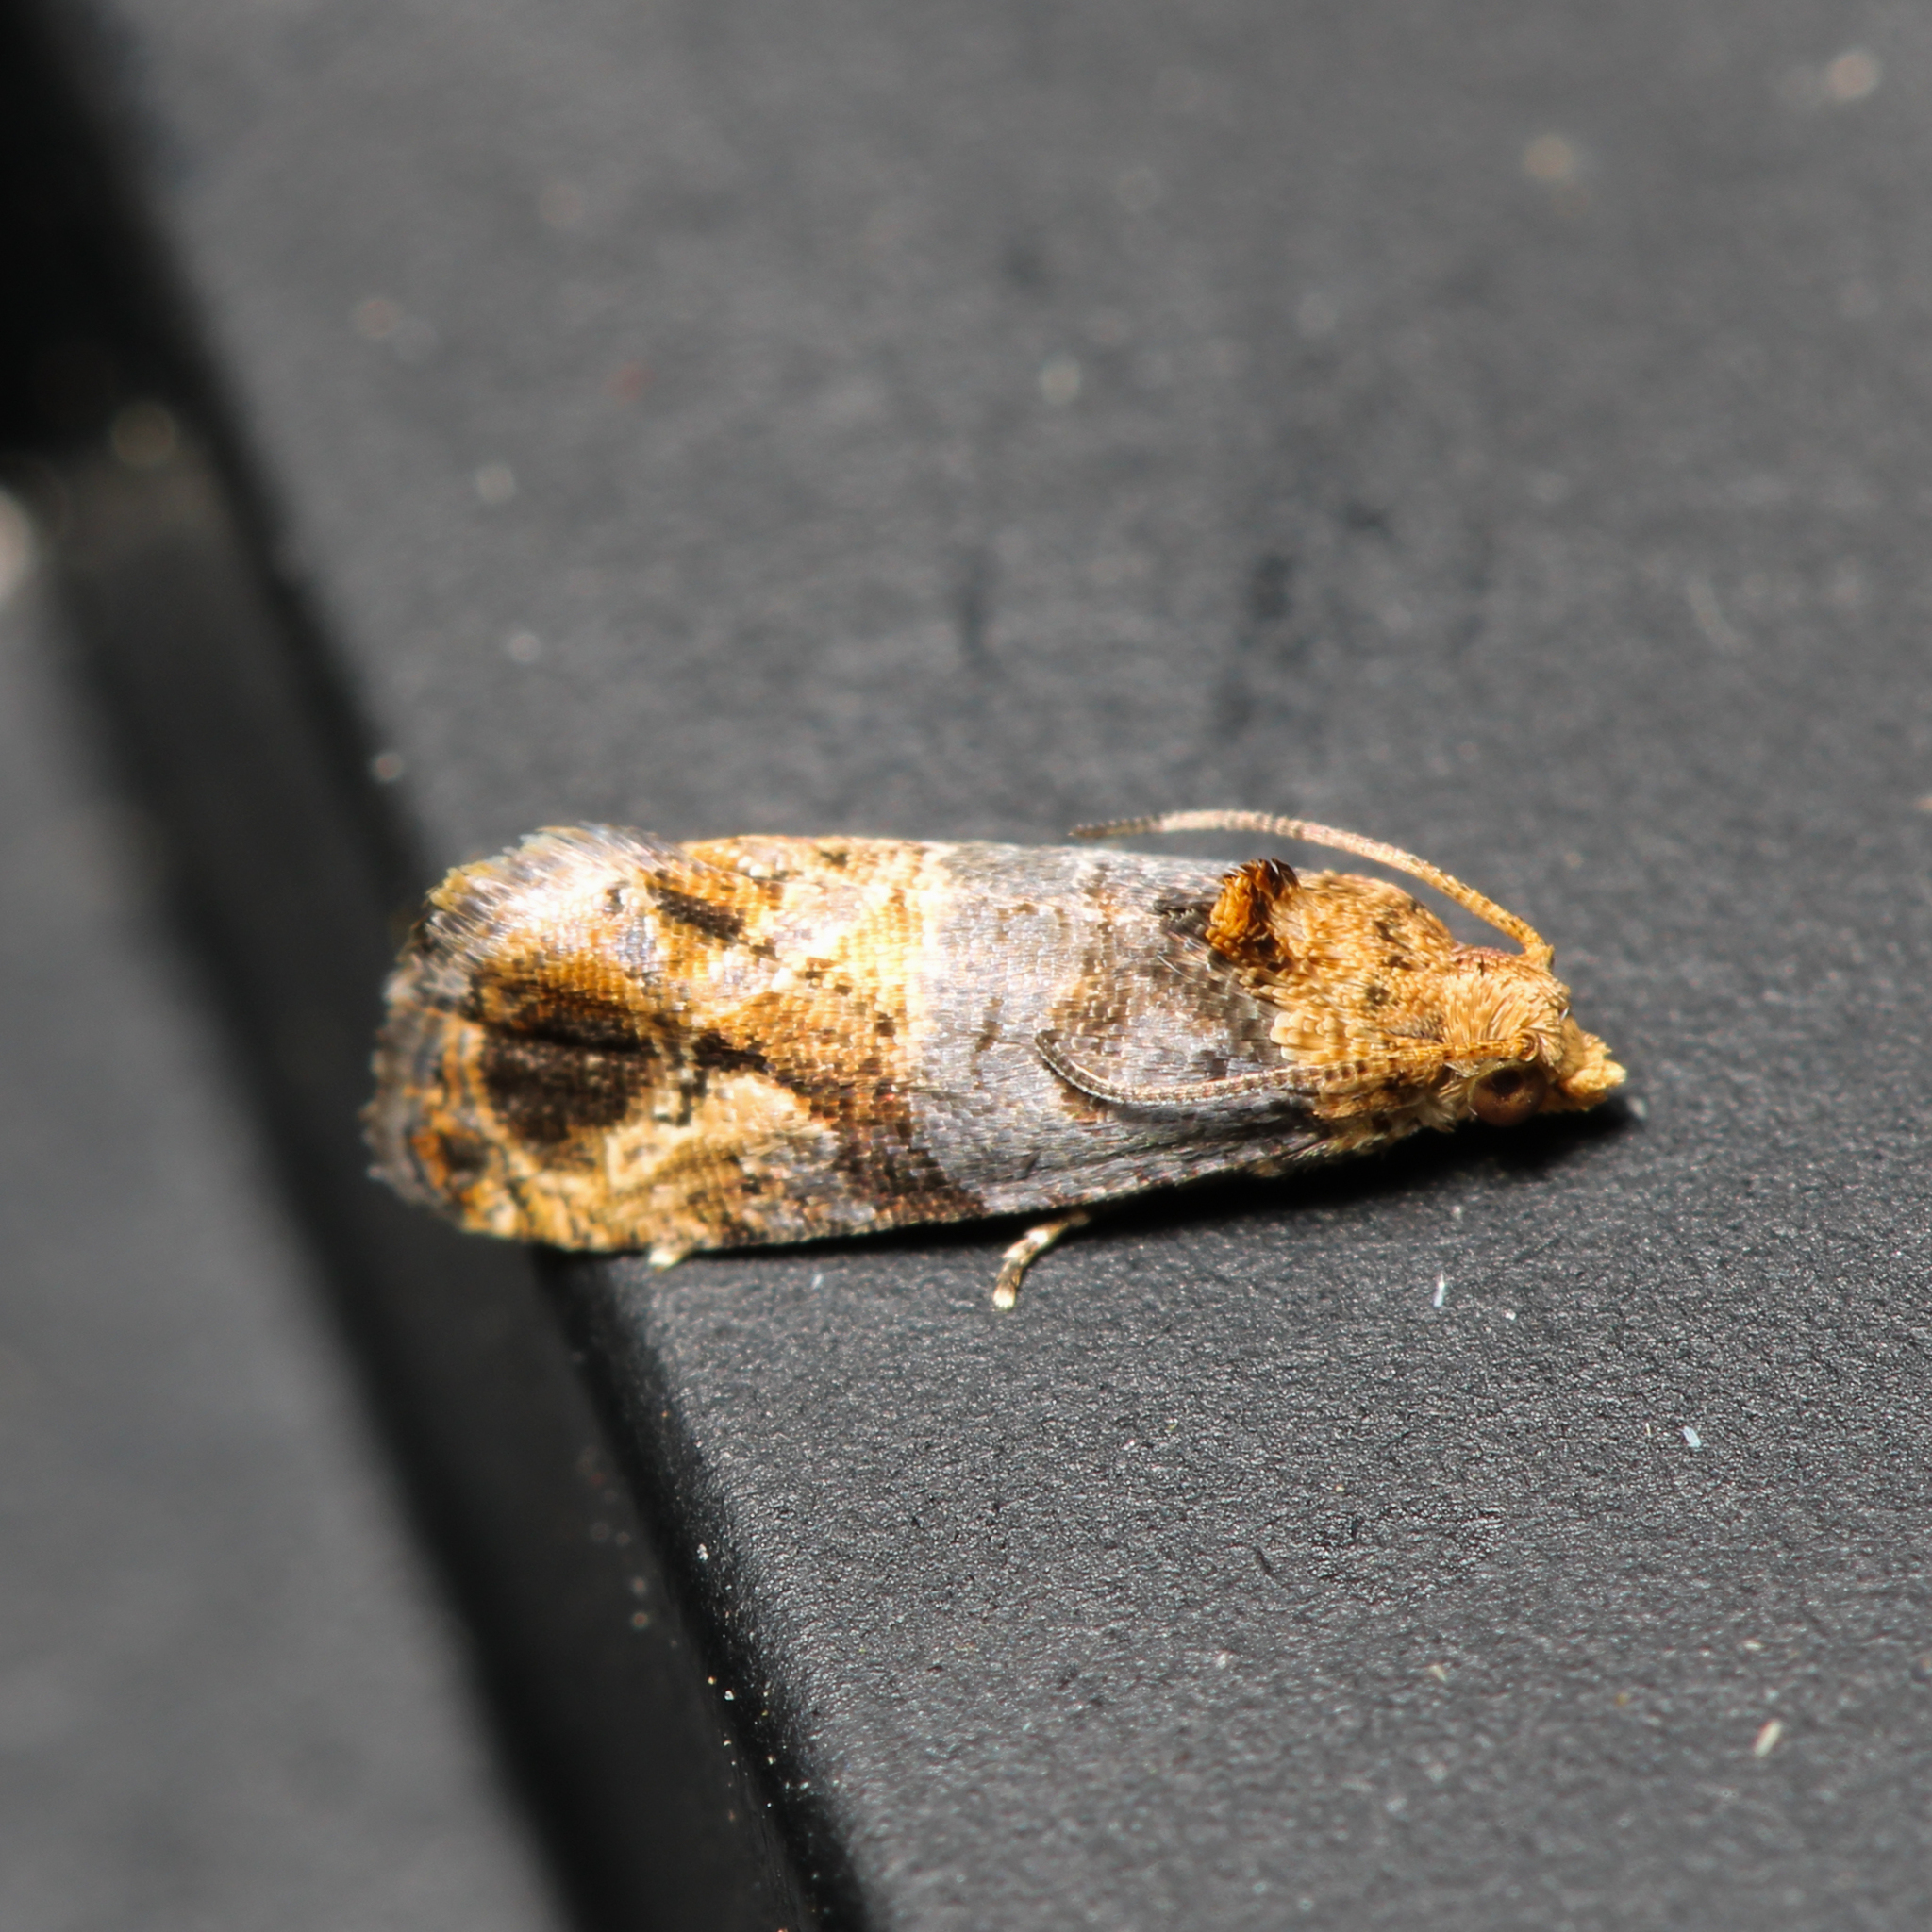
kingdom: Animalia
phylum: Arthropoda
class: Insecta
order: Lepidoptera
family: Tortricidae
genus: Paralobesia
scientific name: Paralobesia viteana
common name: Grape berry moth
